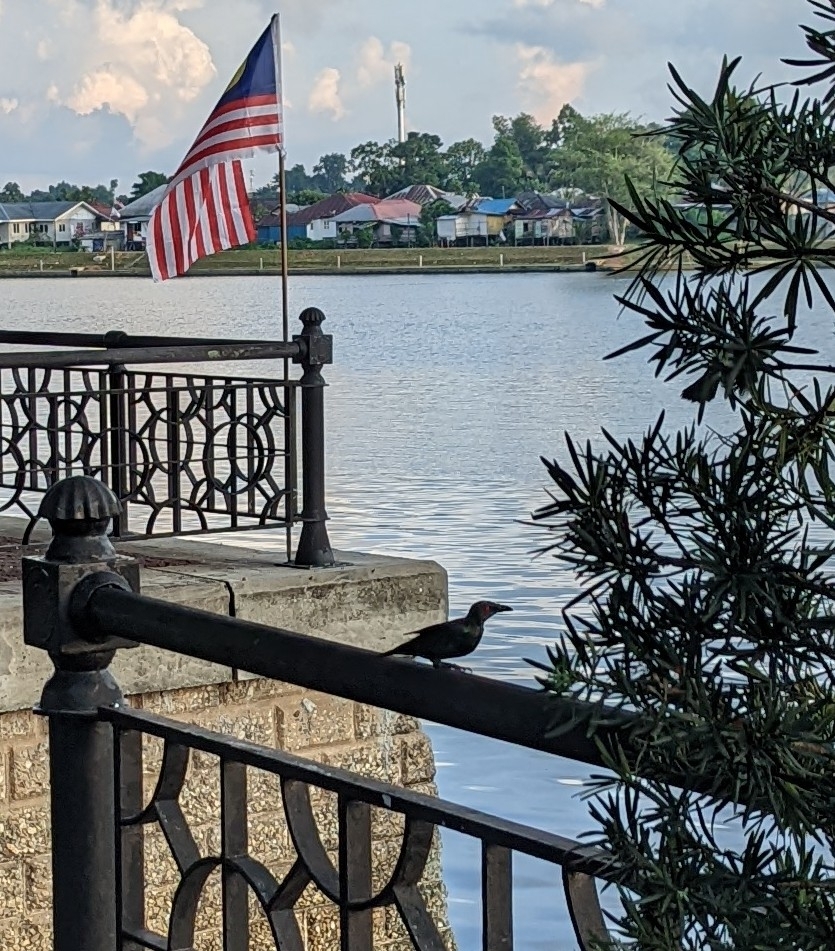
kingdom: Animalia
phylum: Chordata
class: Aves
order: Passeriformes
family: Sturnidae
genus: Aplonis
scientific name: Aplonis panayensis
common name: Asian glossy starling
